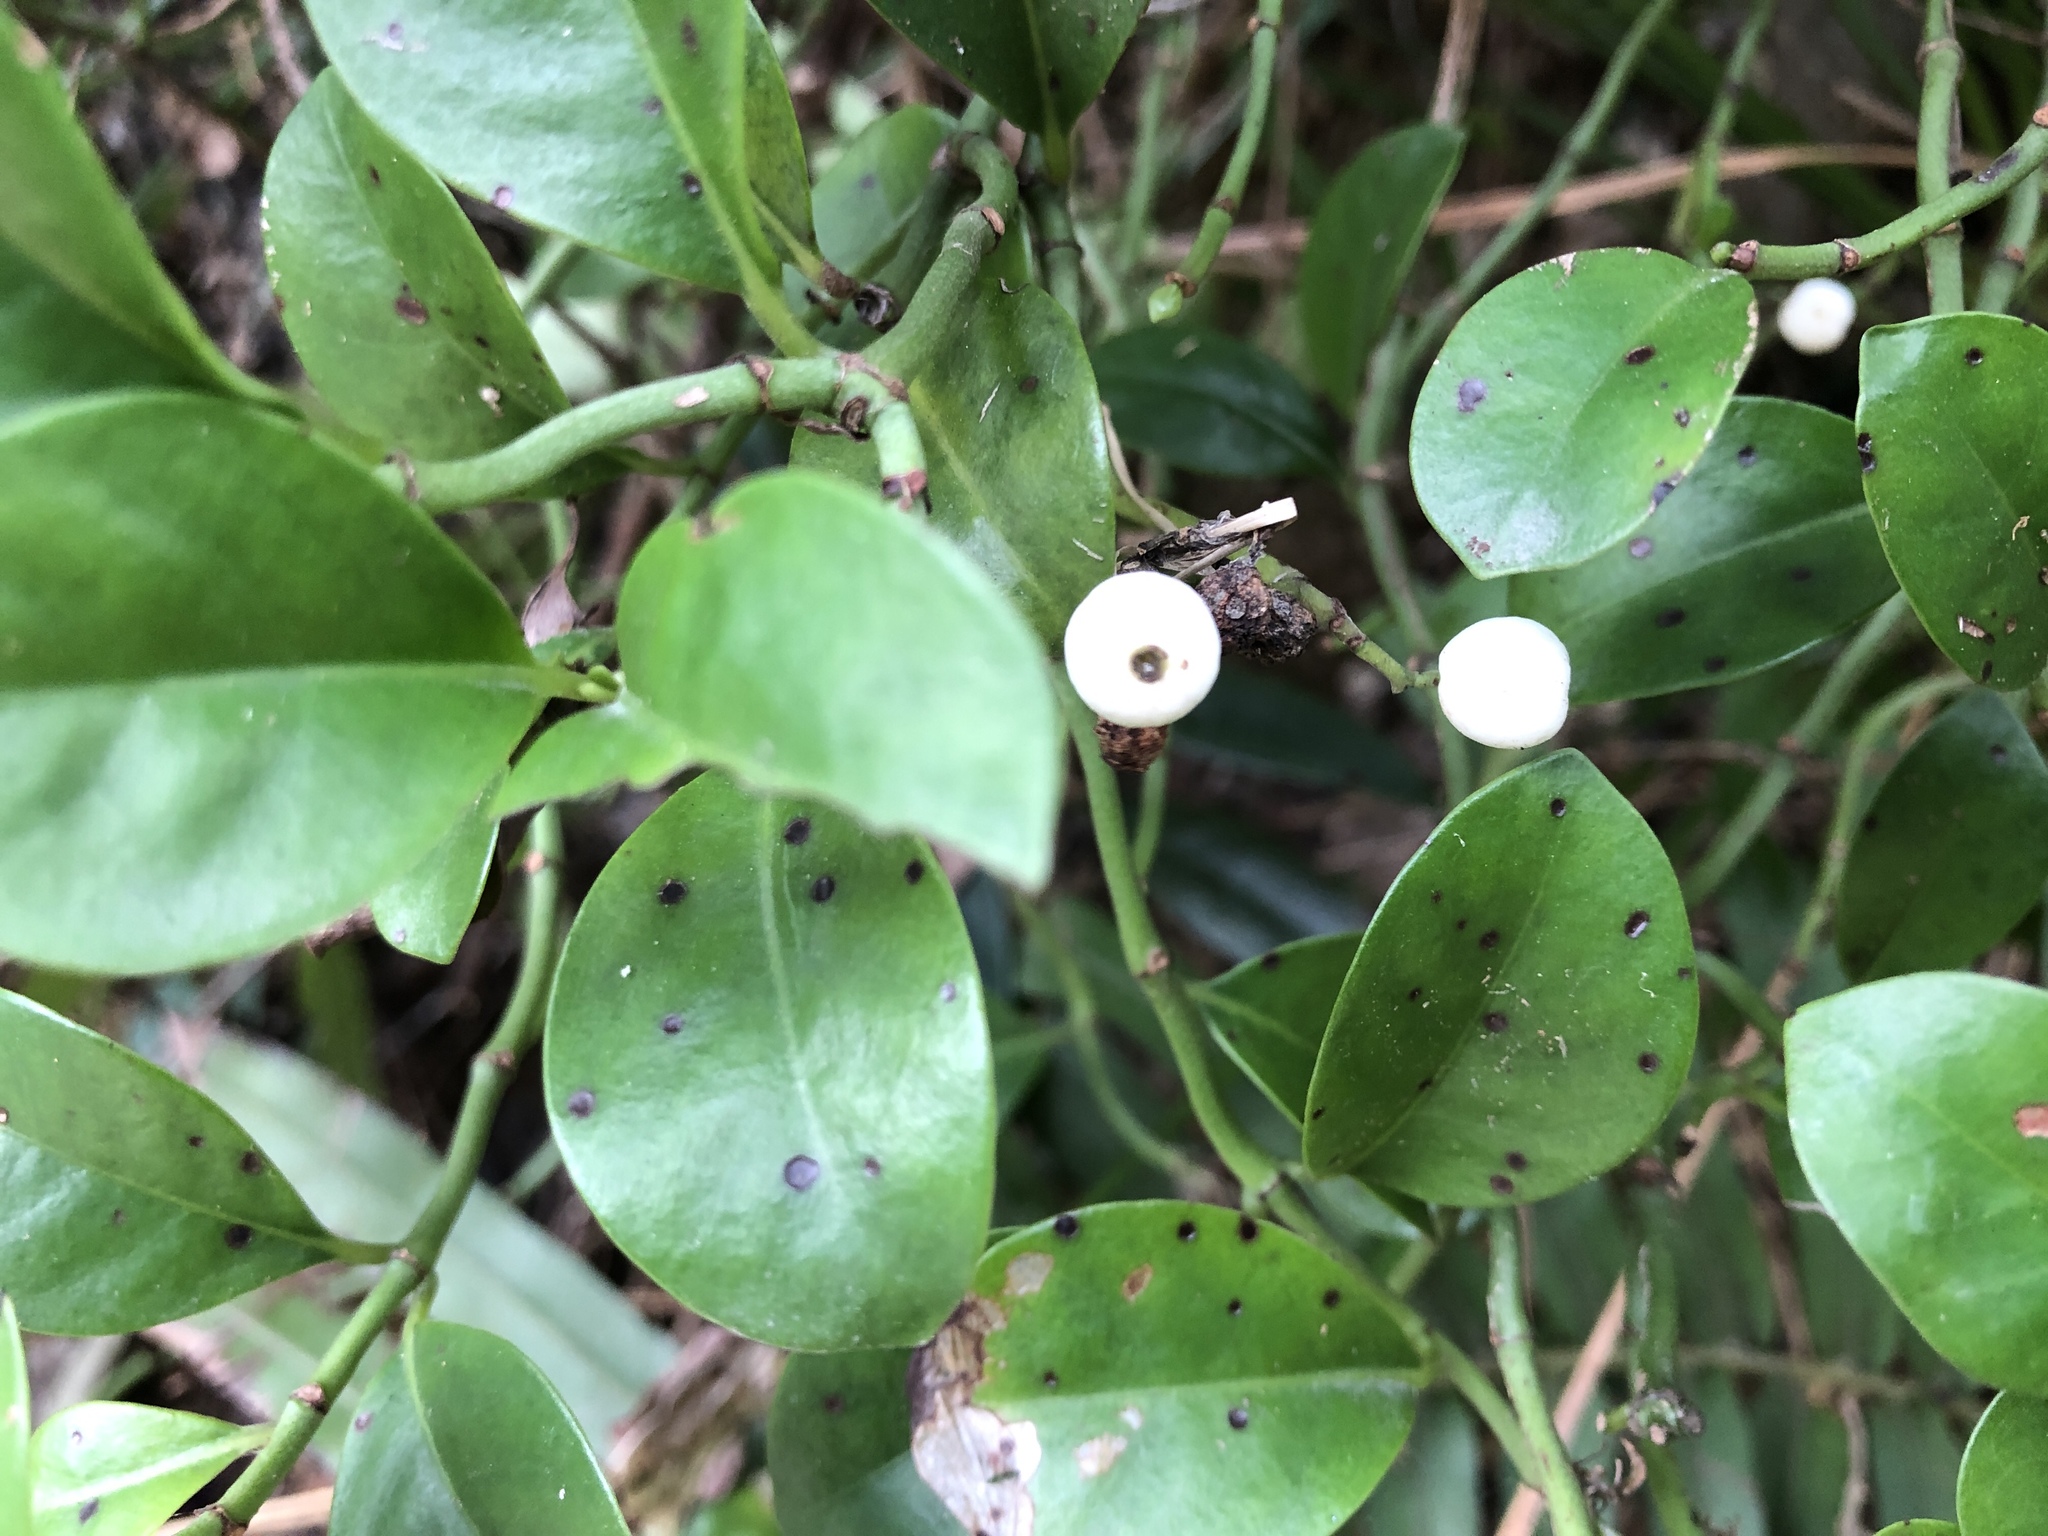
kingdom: Plantae
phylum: Tracheophyta
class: Magnoliopsida
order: Gentianales
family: Rubiaceae
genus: Psychotria
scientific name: Psychotria serpens
